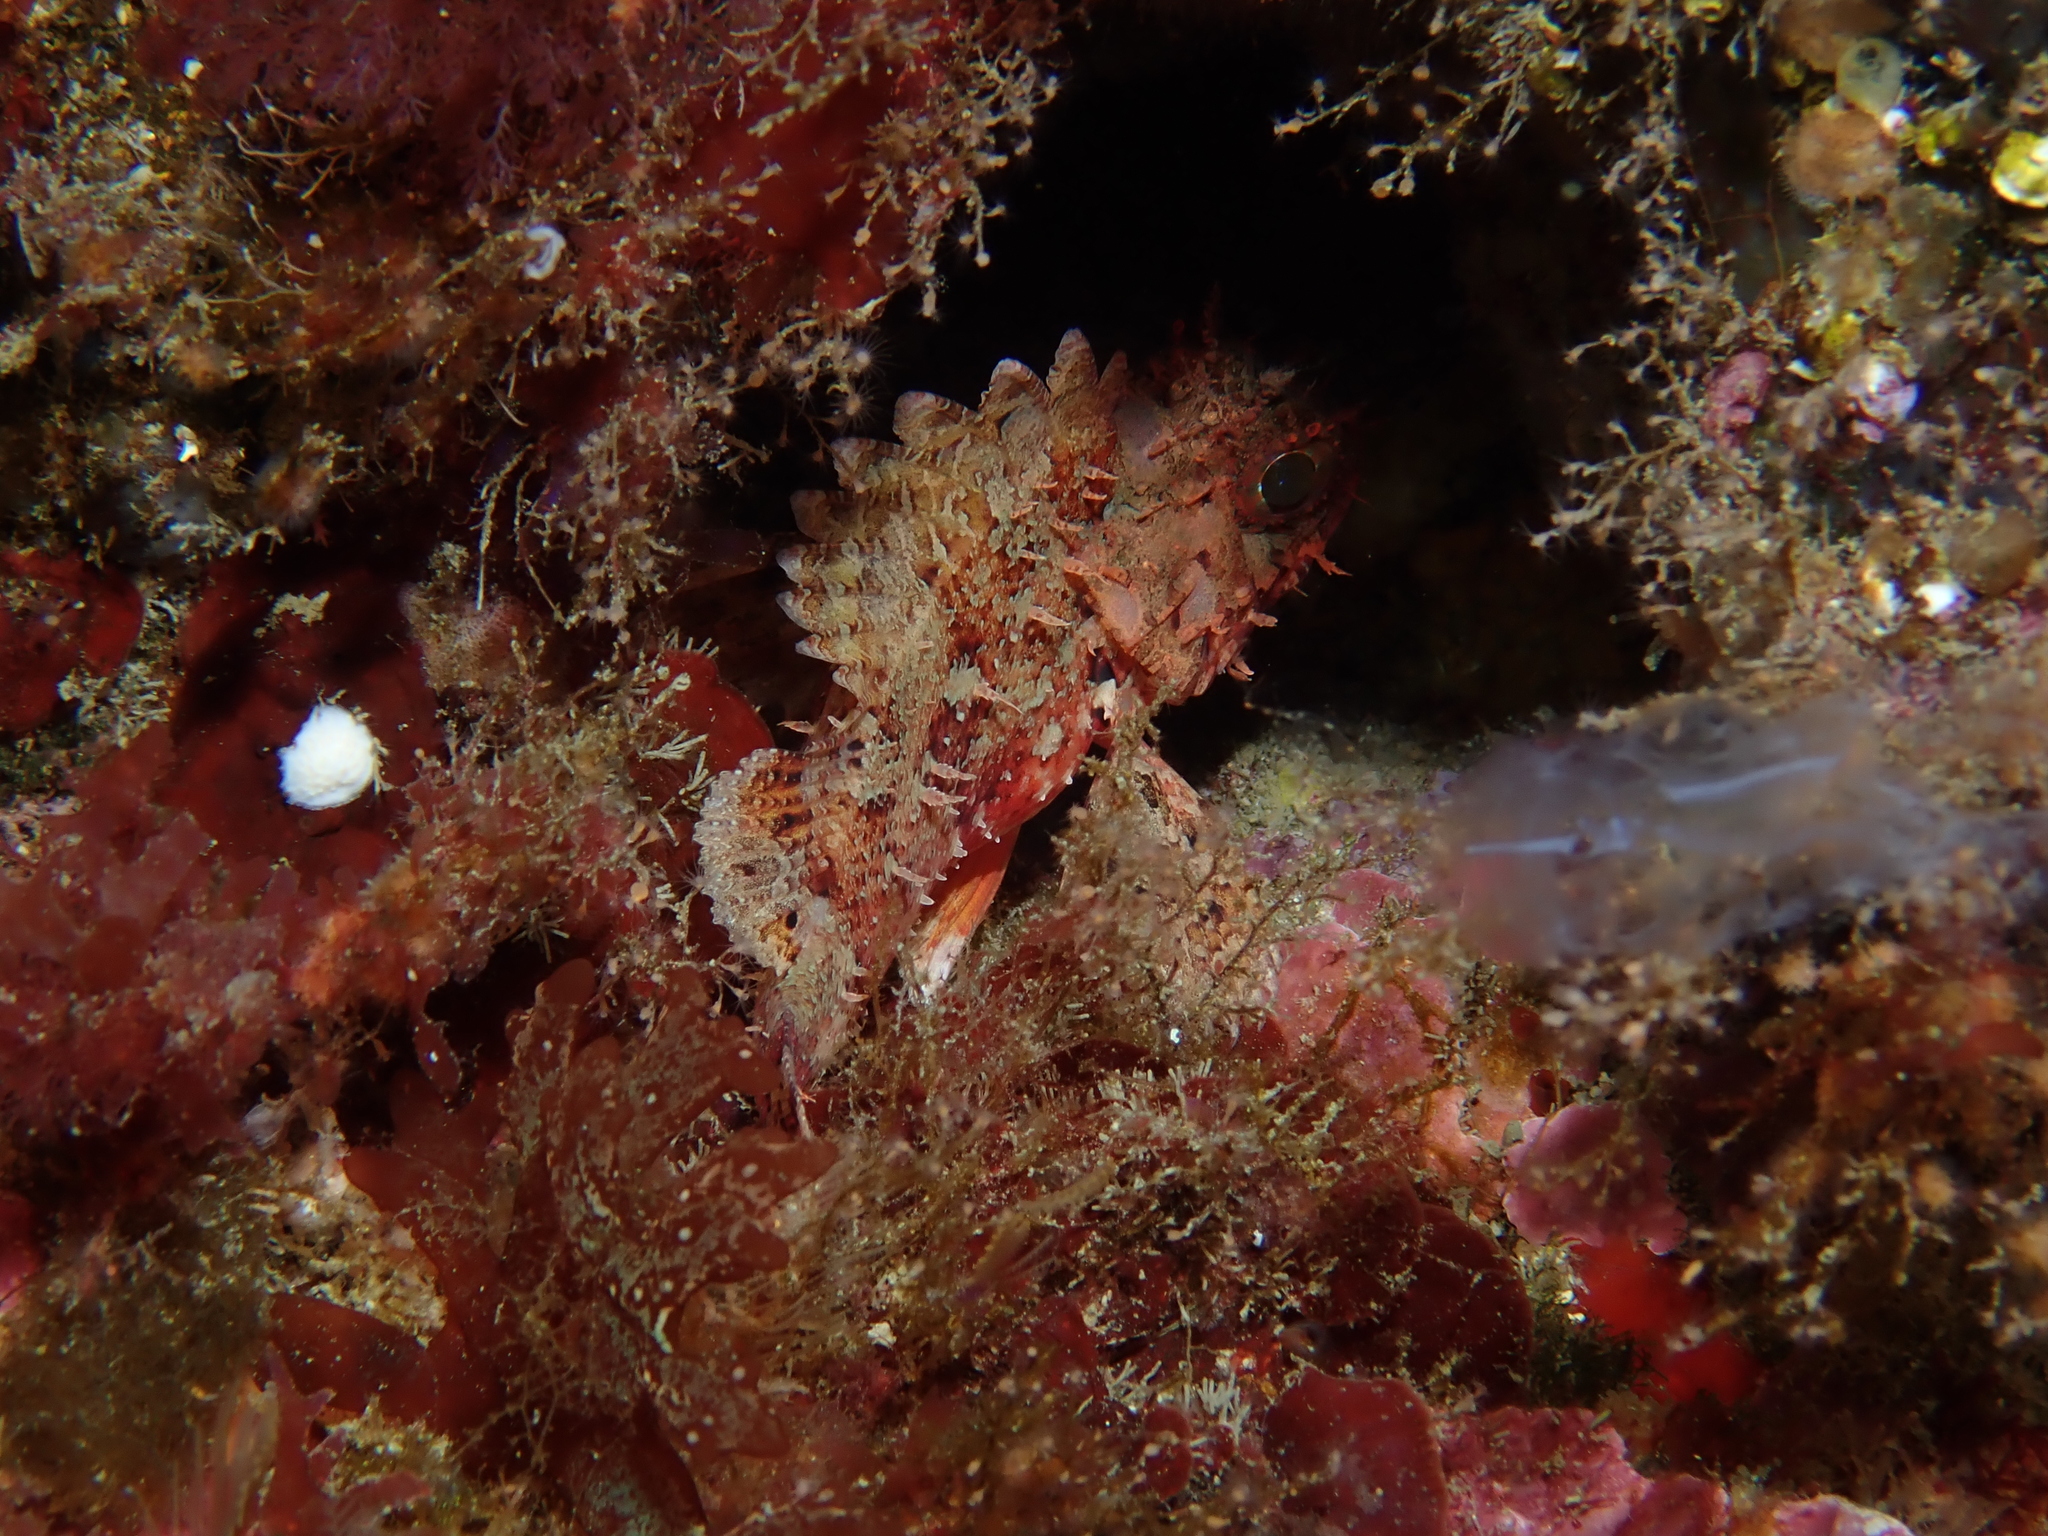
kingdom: Animalia
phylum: Chordata
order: Scorpaeniformes
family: Scorpaenidae
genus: Scorpaena
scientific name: Scorpaena notata
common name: Small red scorpionfish
